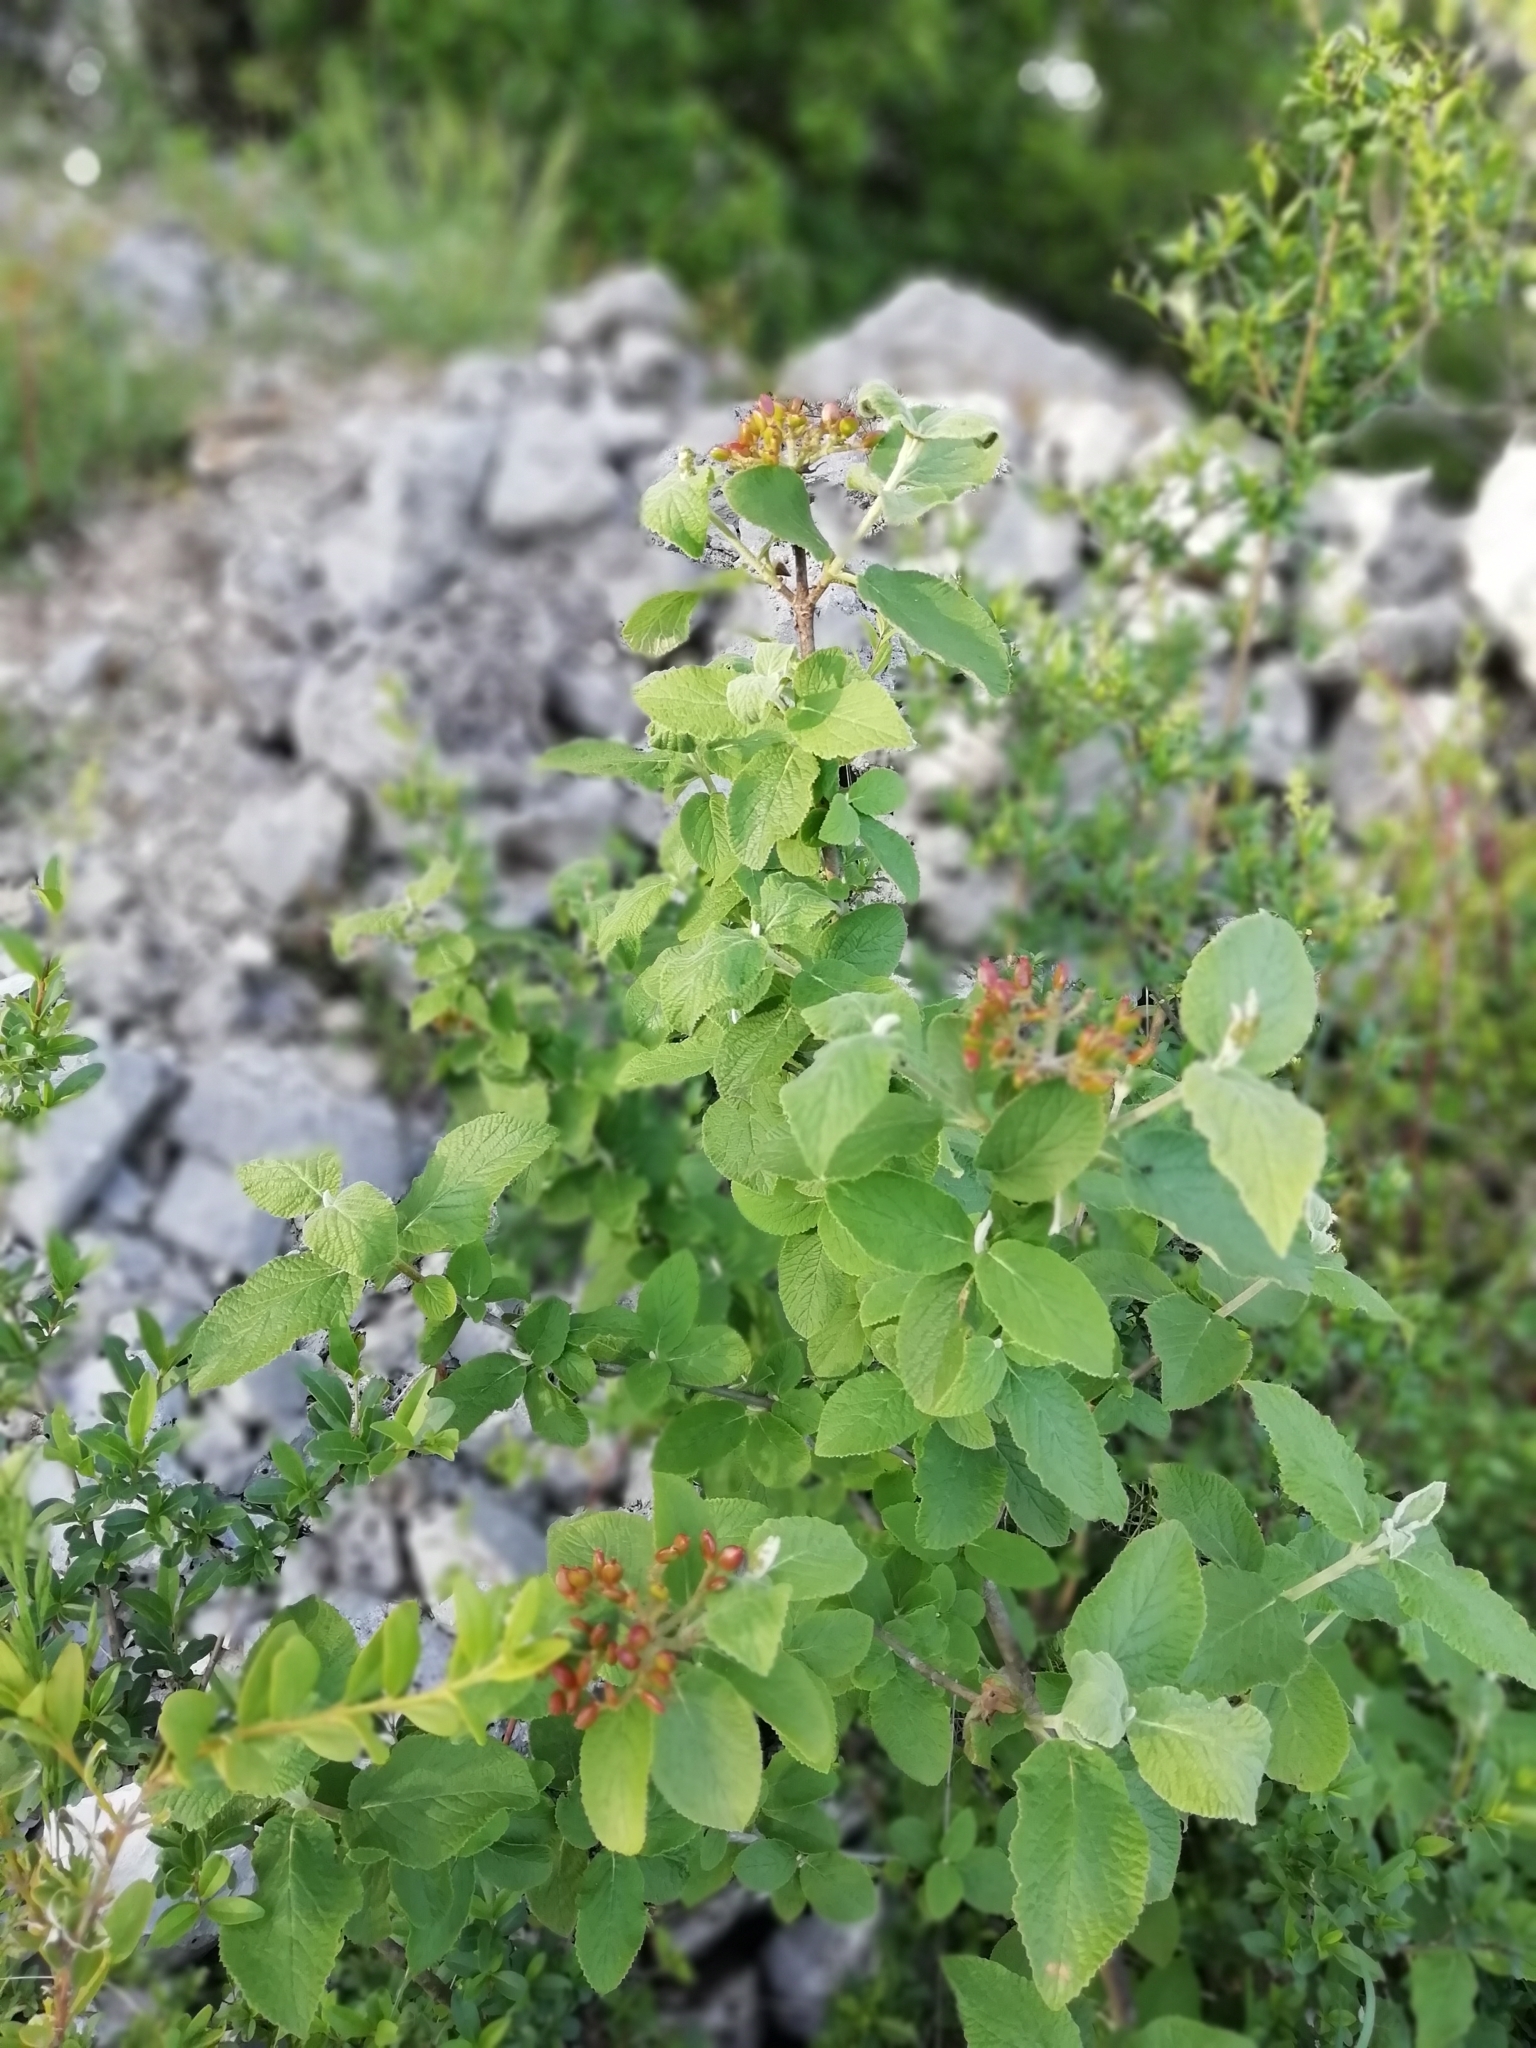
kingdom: Plantae
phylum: Tracheophyta
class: Magnoliopsida
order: Dipsacales
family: Viburnaceae
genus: Viburnum
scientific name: Viburnum lantana
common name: Wayfaring tree
